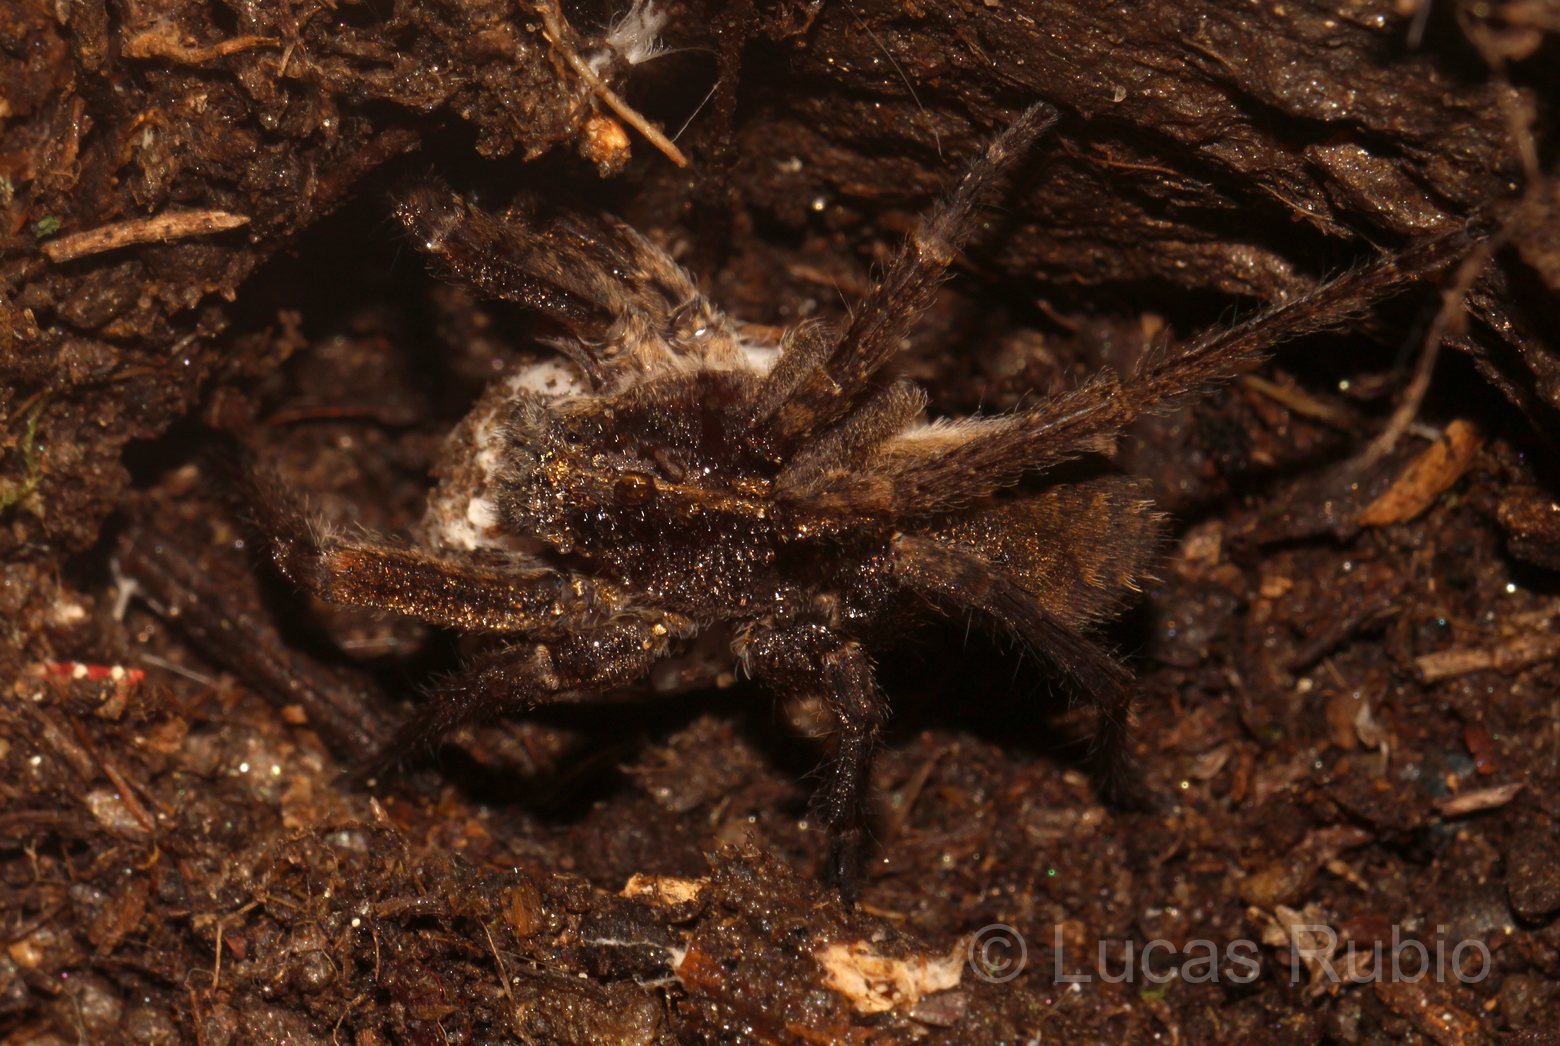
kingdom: Animalia
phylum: Arthropoda
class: Arachnida
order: Araneae
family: Ctenidae
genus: Parabatinga
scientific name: Parabatinga brevipes
